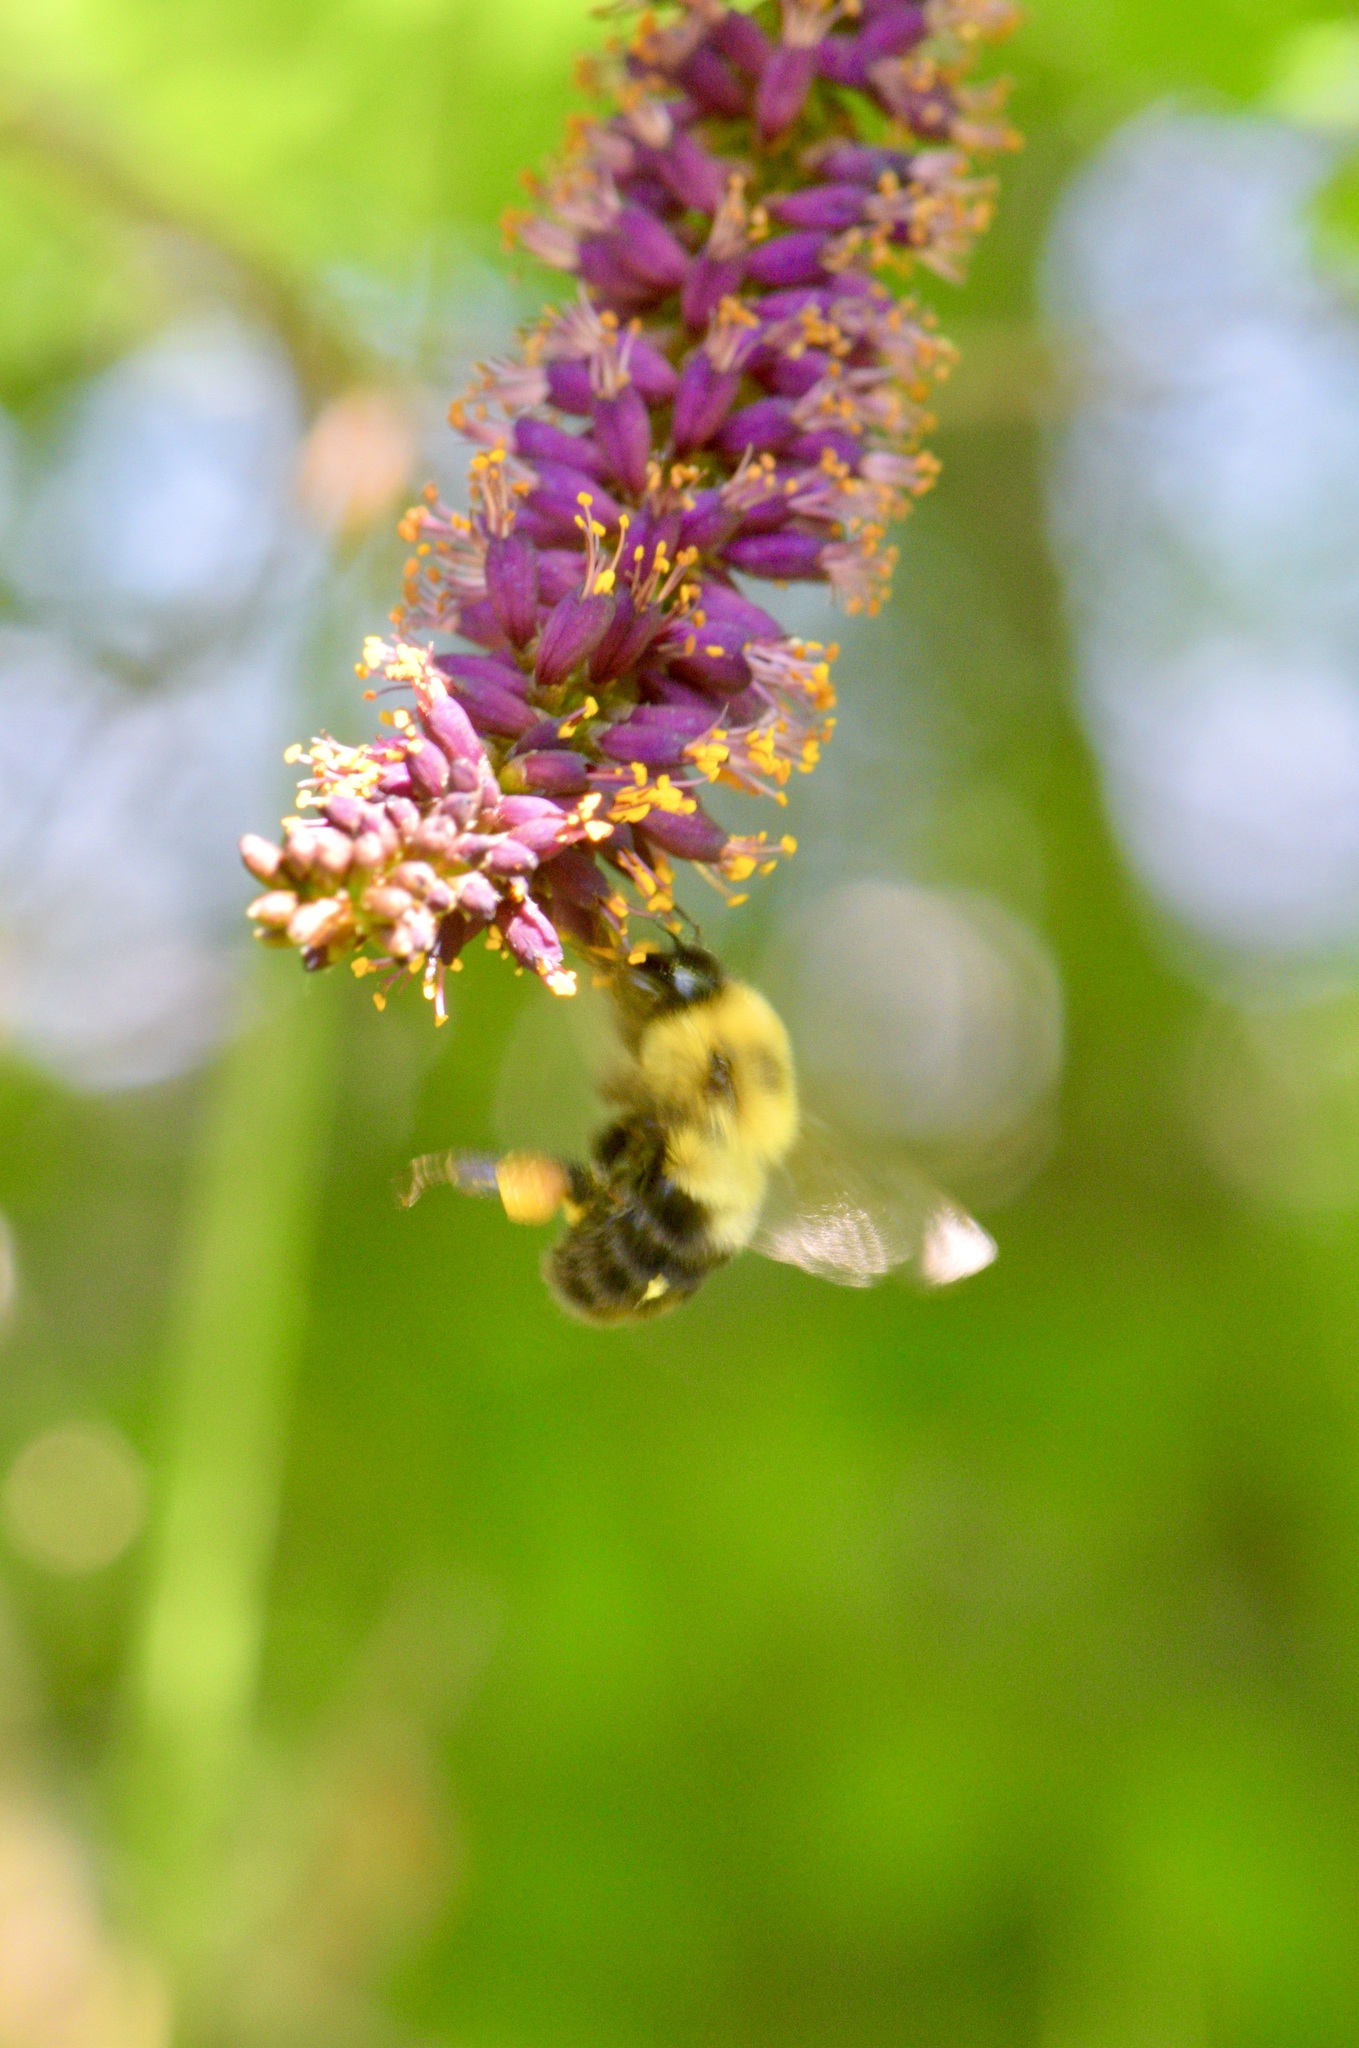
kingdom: Animalia
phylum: Arthropoda
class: Insecta
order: Hymenoptera
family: Apidae
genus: Bombus
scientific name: Bombus bimaculatus
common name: Two-spotted bumble bee
